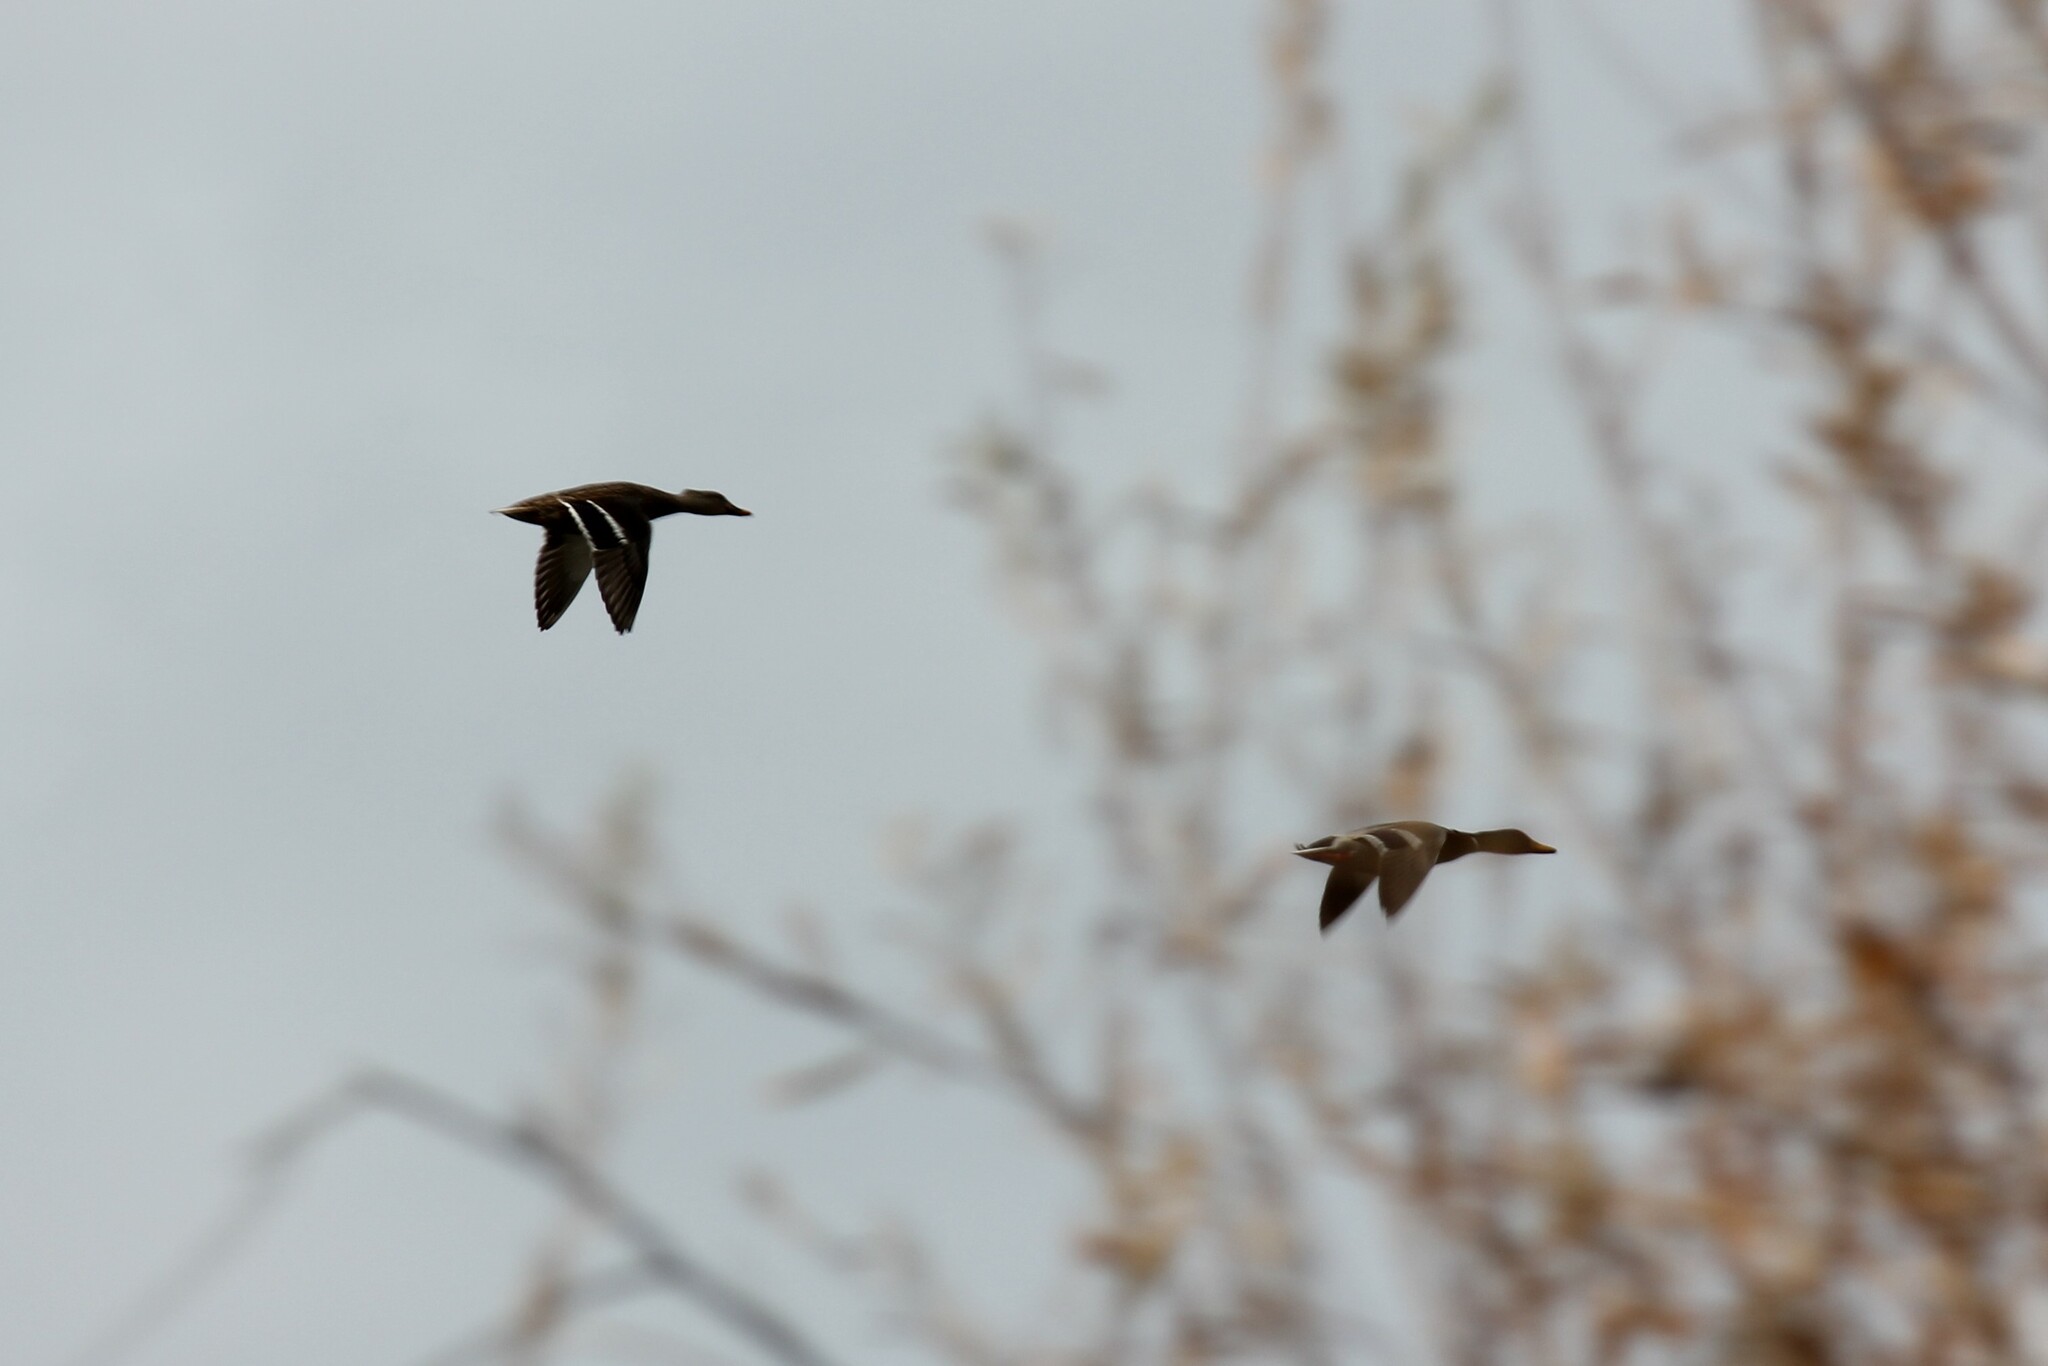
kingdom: Animalia
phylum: Chordata
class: Aves
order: Anseriformes
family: Anatidae
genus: Anas
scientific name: Anas platyrhynchos
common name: Mallard
